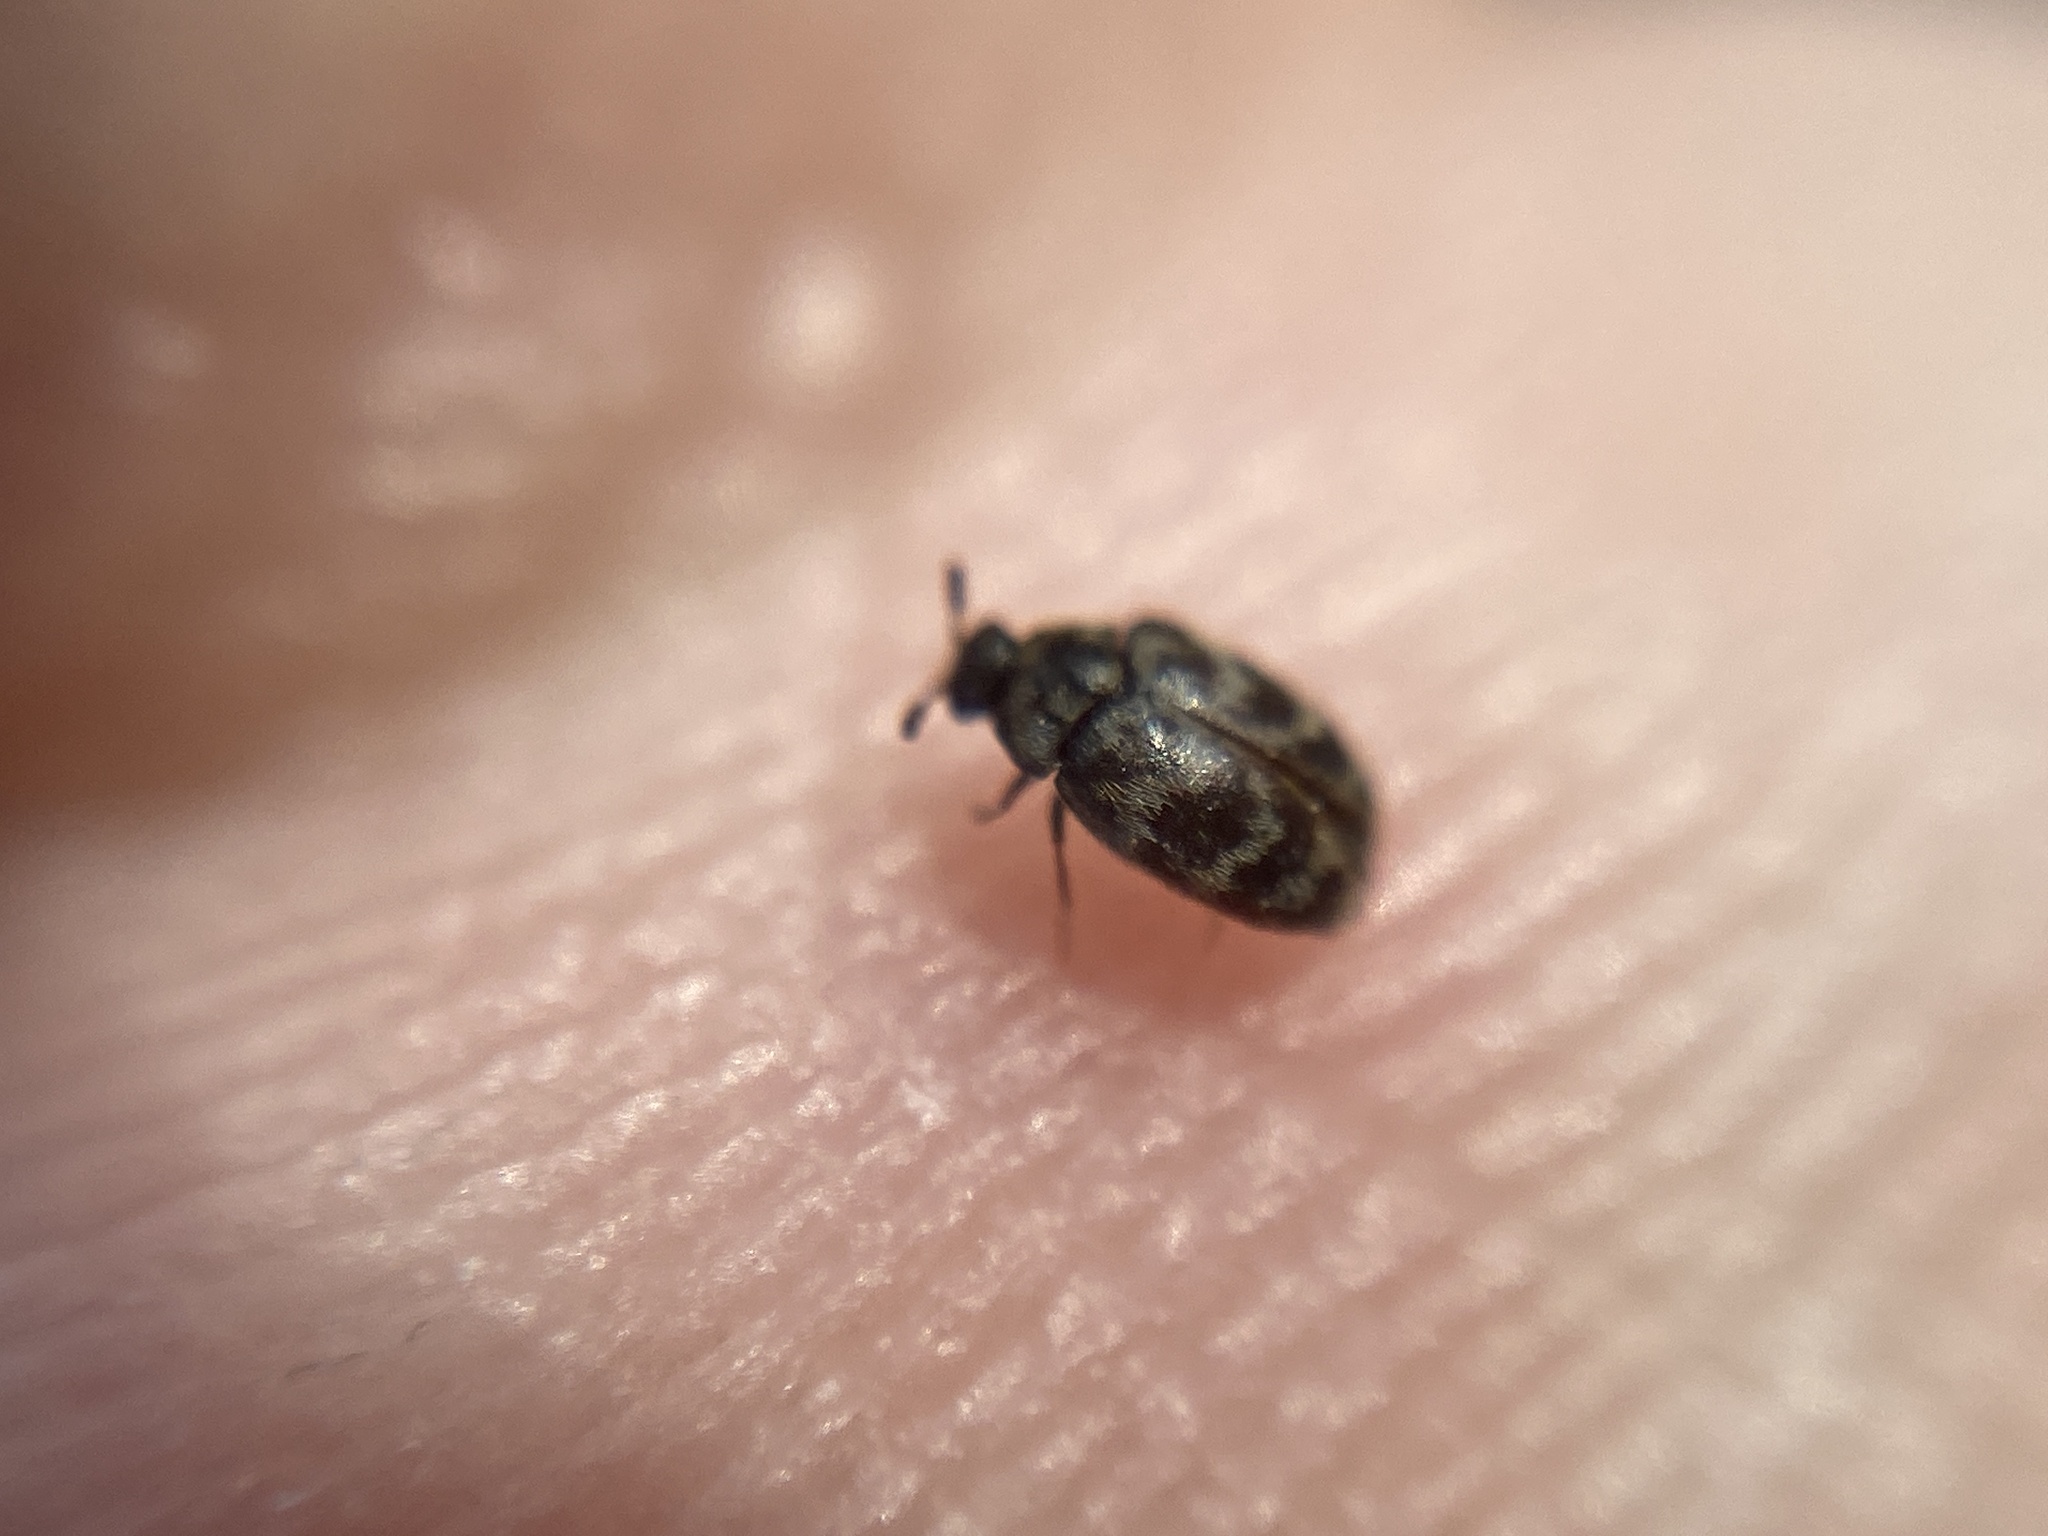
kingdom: Animalia
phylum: Arthropoda
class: Insecta
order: Coleoptera
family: Dermestidae
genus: Anthrenocerus
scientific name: Anthrenocerus australis
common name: Australian carpet beetle
